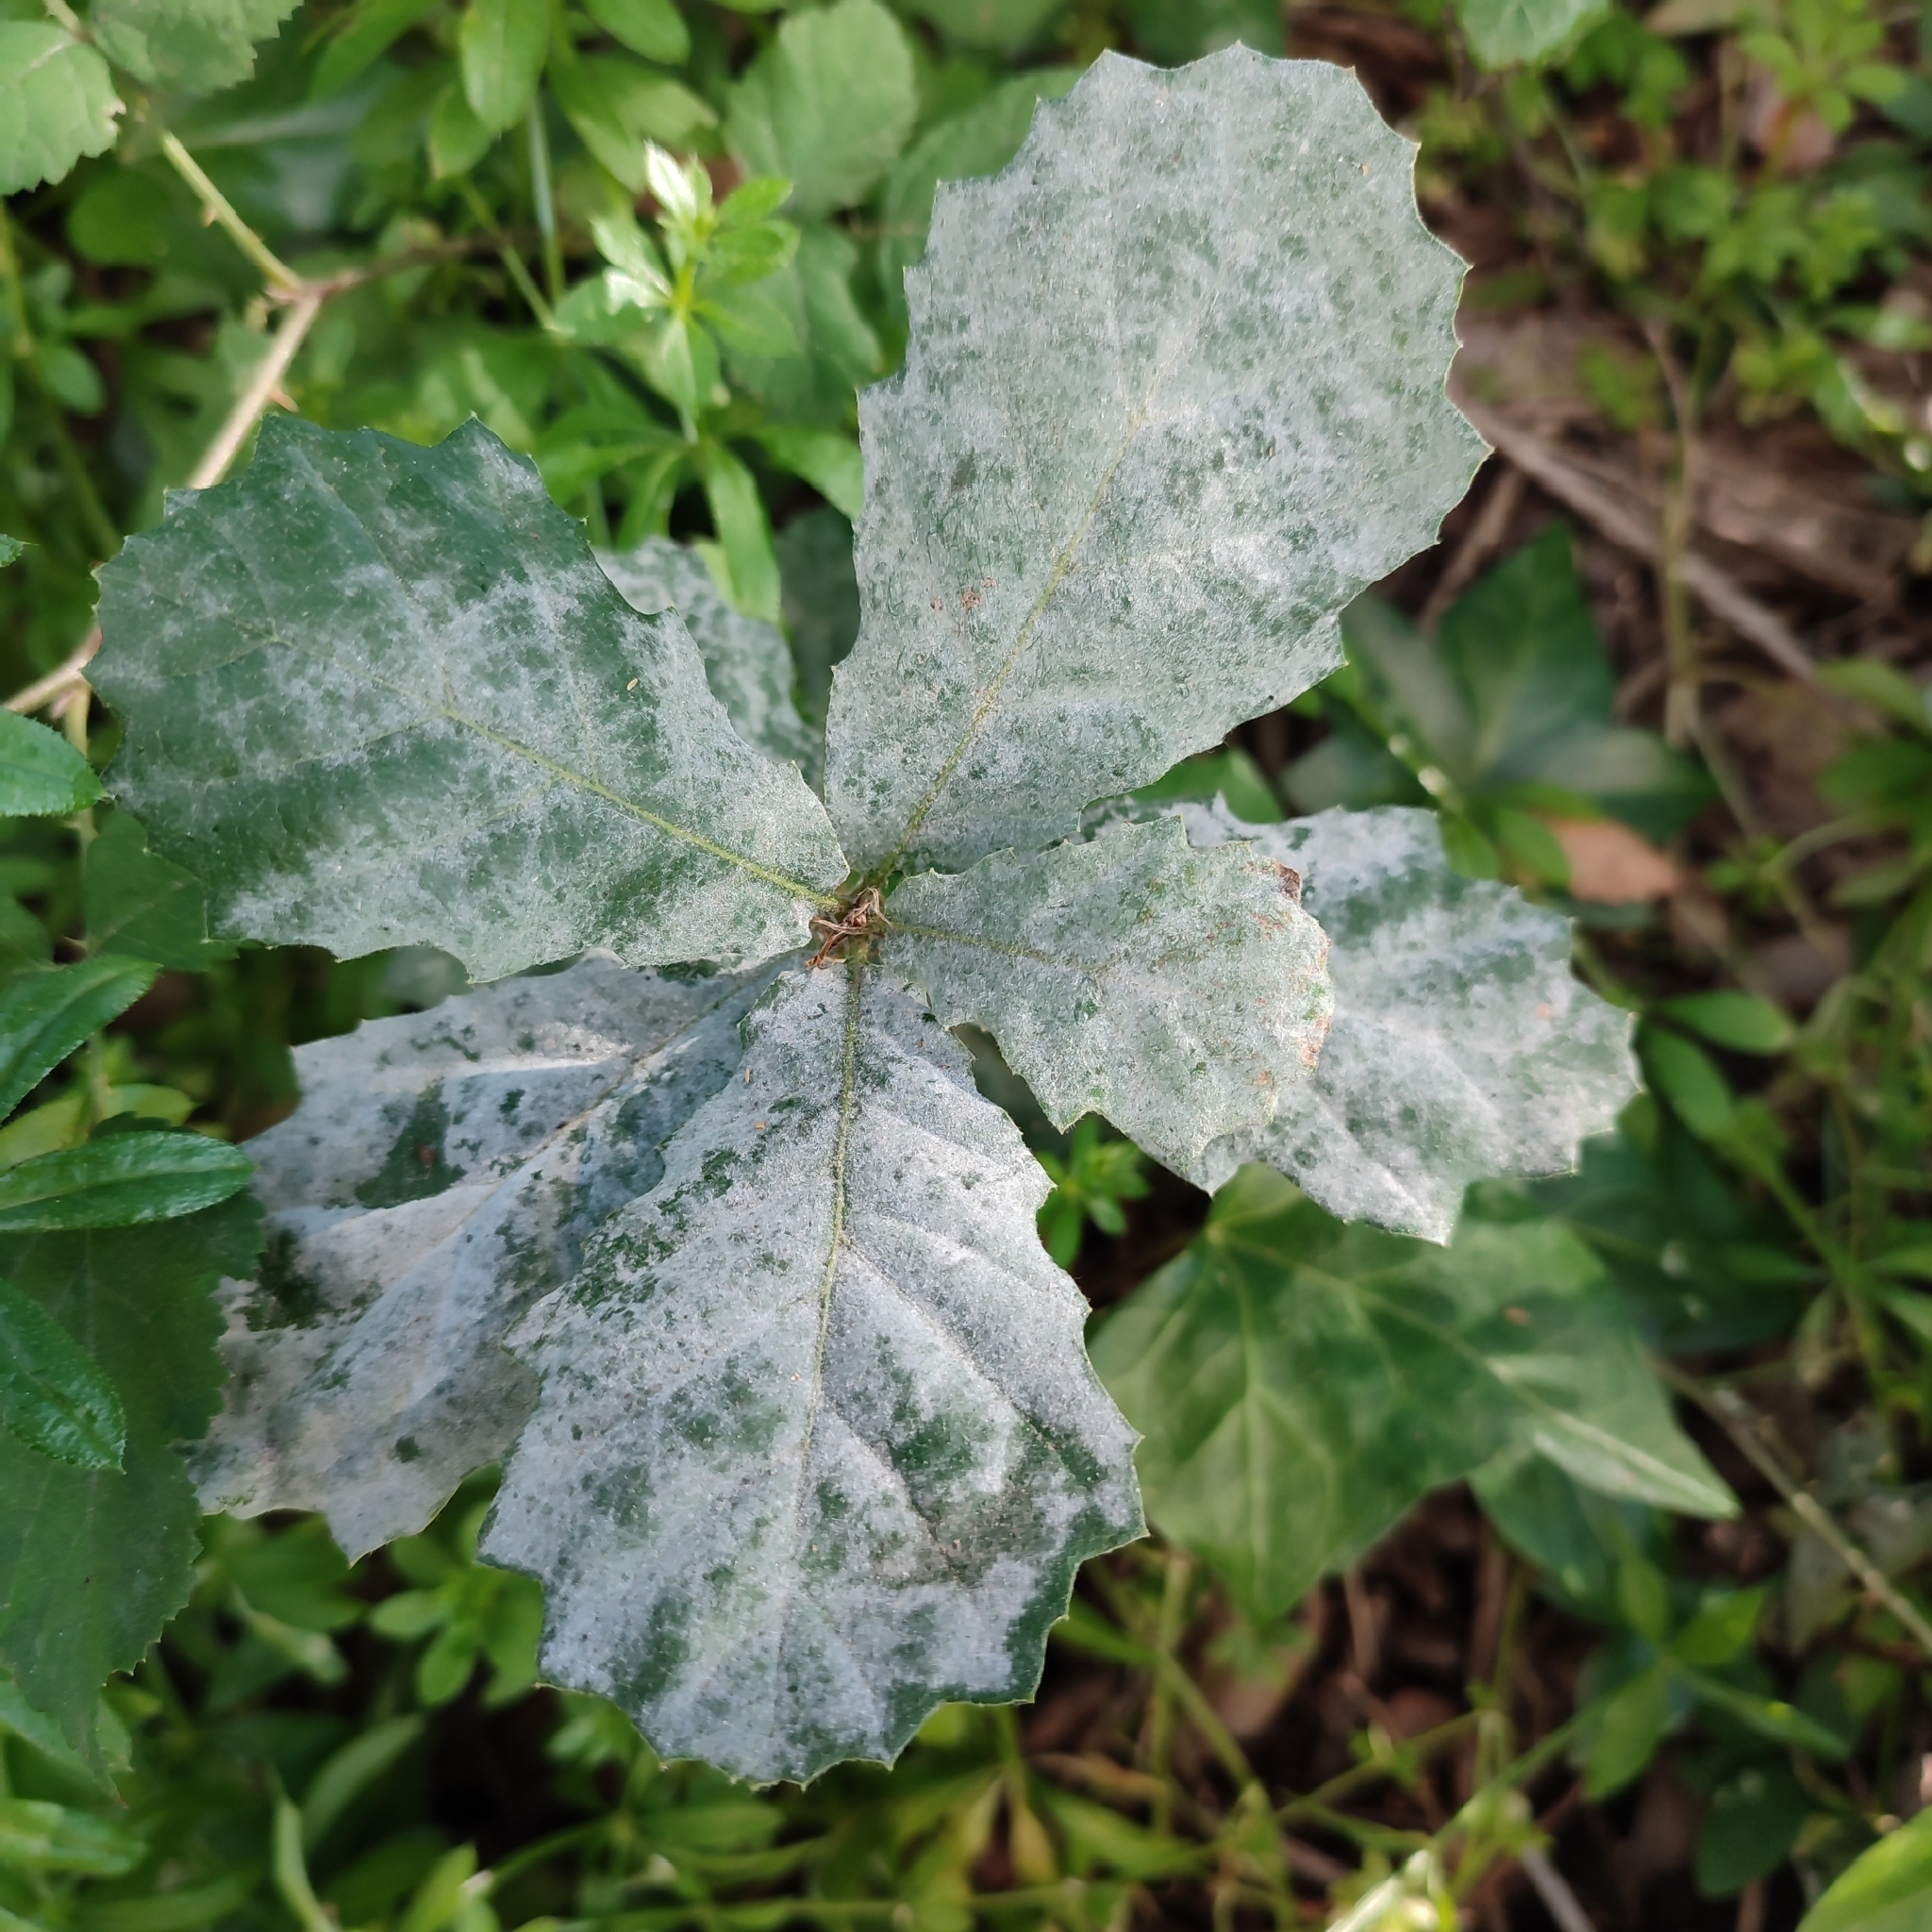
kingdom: Fungi
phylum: Ascomycota
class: Leotiomycetes
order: Helotiales
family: Erysiphaceae
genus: Erysiphe
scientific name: Erysiphe alphitoides
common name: Oak mildew
